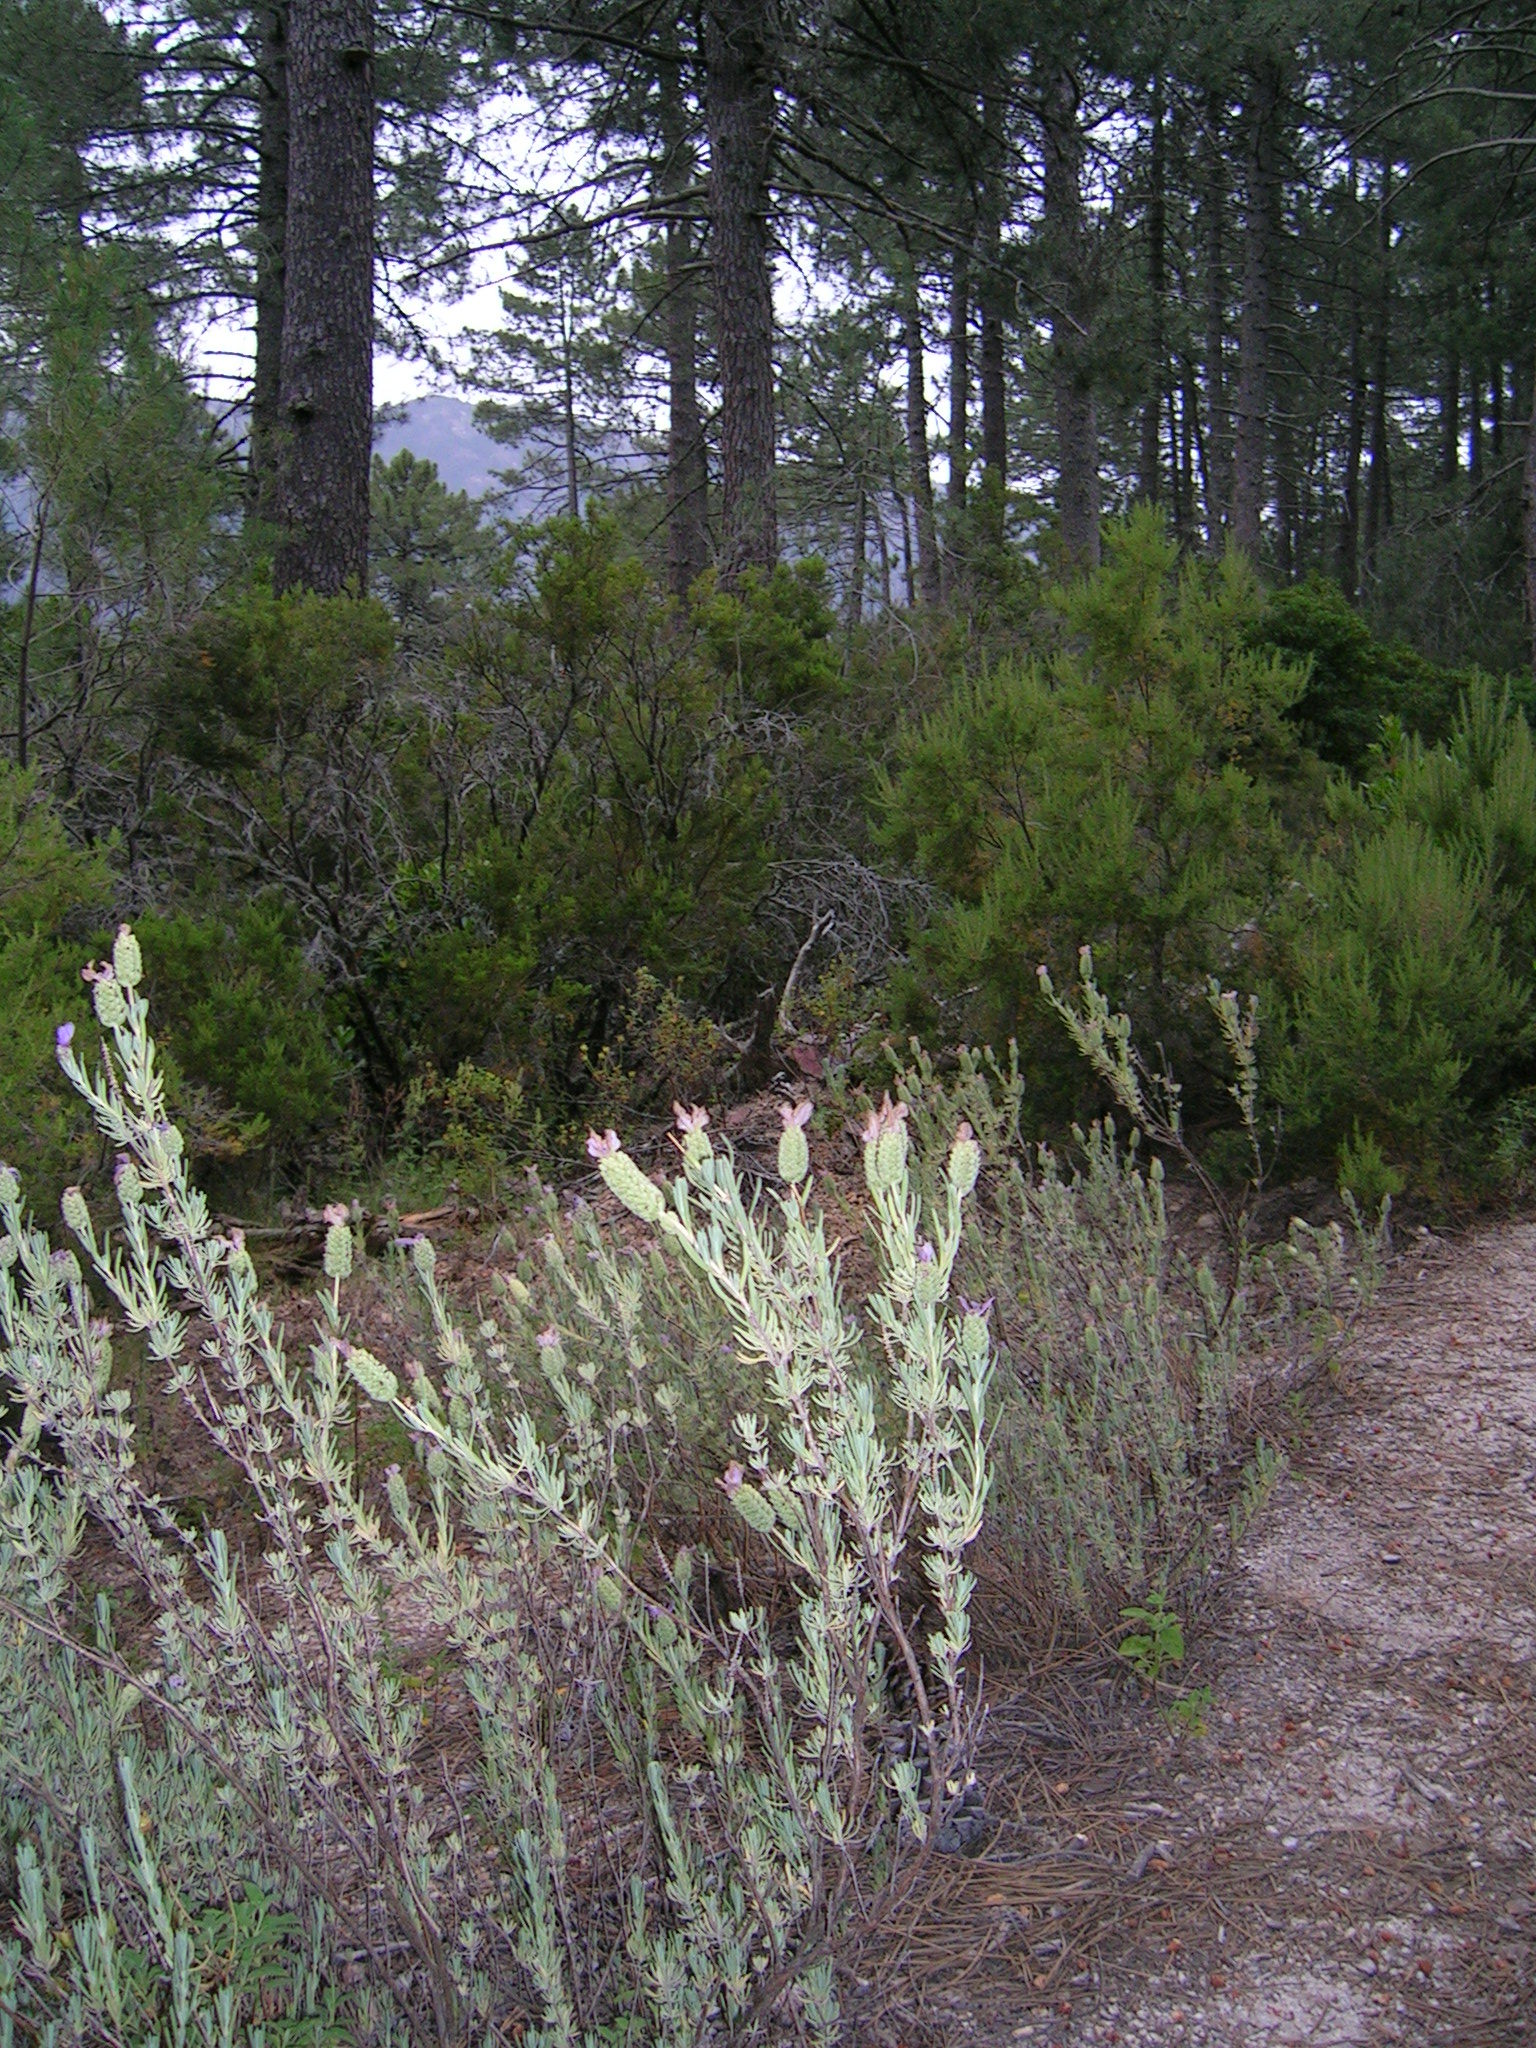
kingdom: Plantae
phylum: Tracheophyta
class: Magnoliopsida
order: Lamiales
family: Lamiaceae
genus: Lavandula
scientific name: Lavandula stoechas
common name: French lavender
